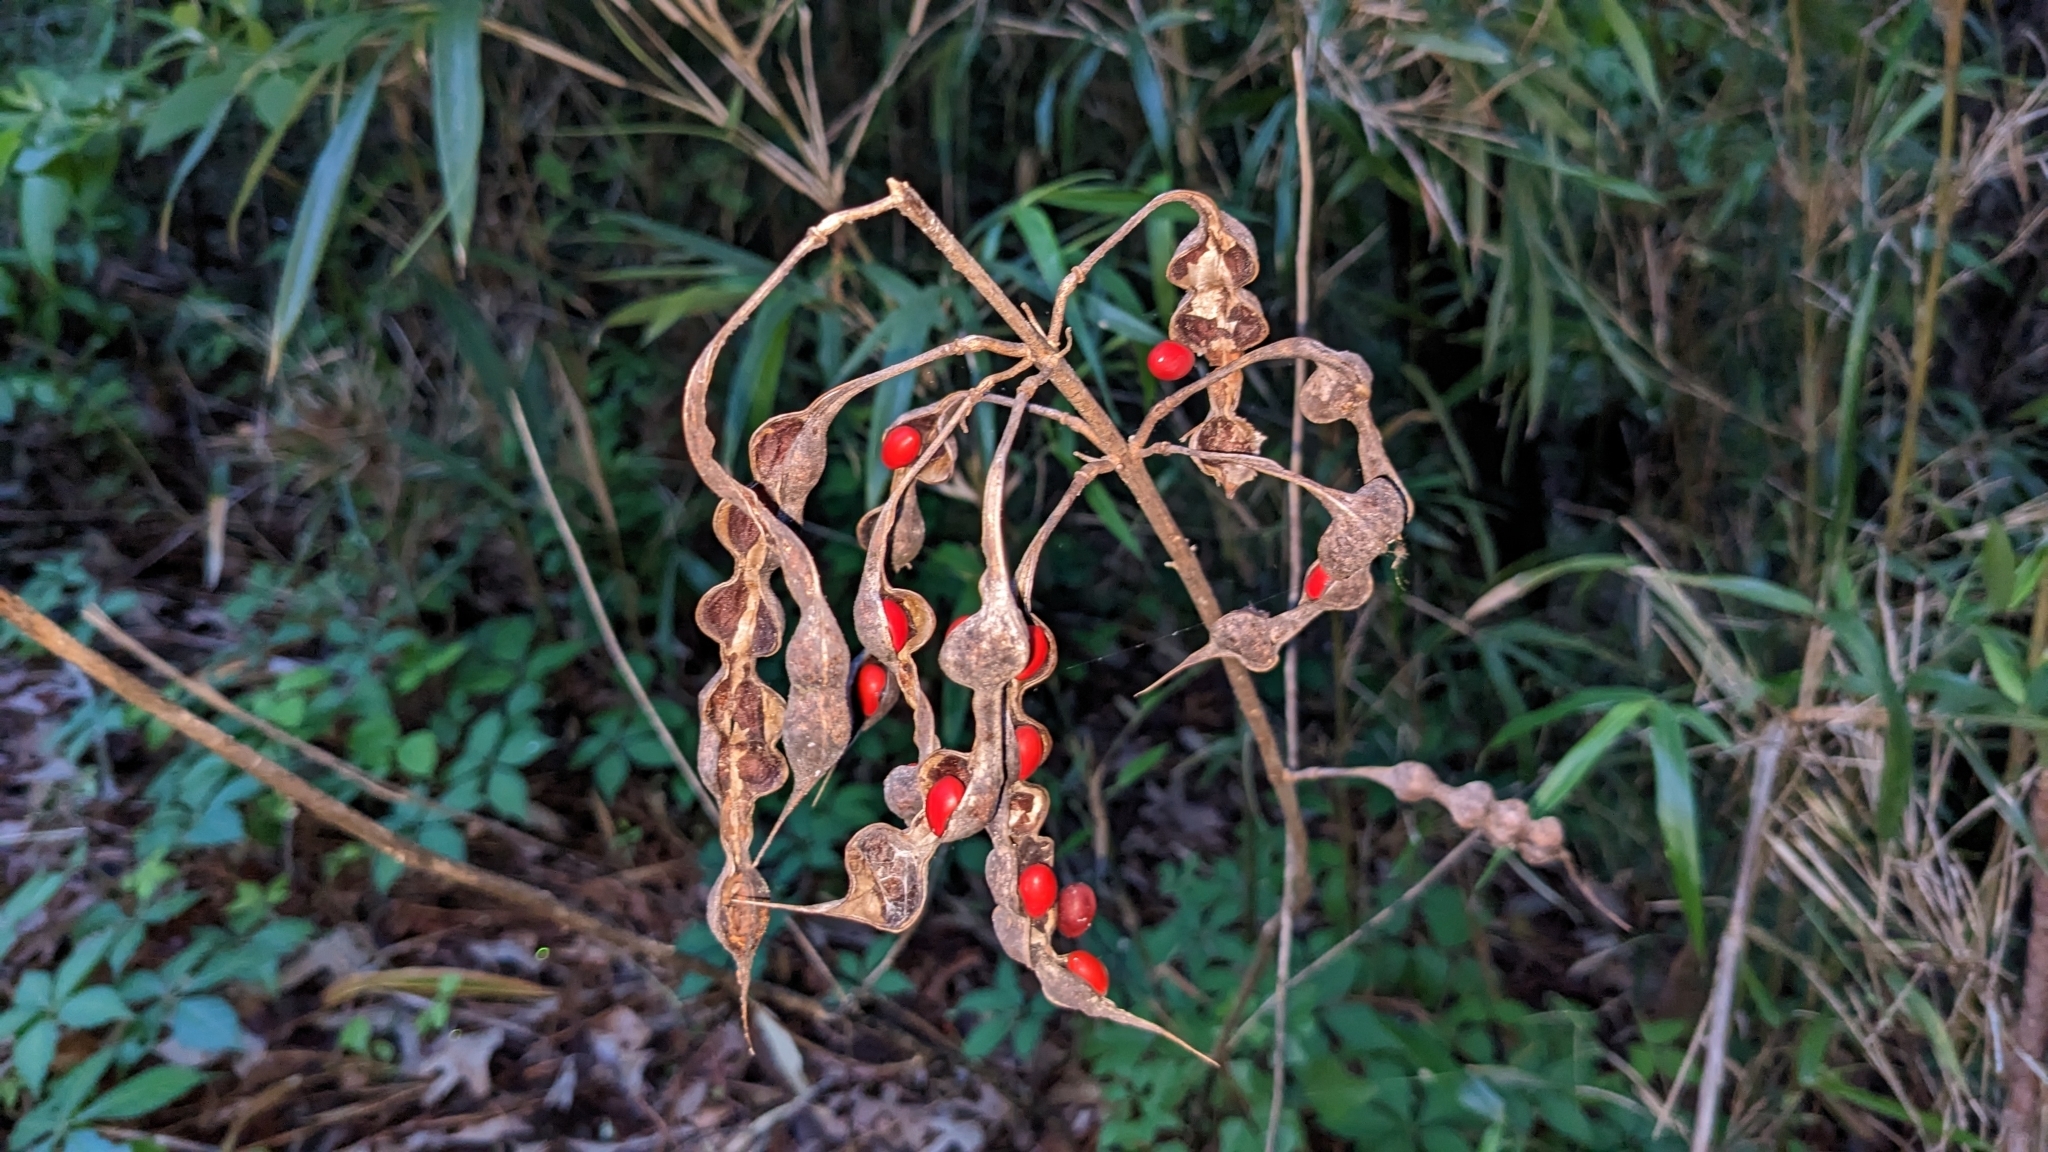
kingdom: Plantae
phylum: Tracheophyta
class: Magnoliopsida
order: Fabales
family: Fabaceae
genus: Erythrina
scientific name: Erythrina herbacea
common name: Coral-bean
